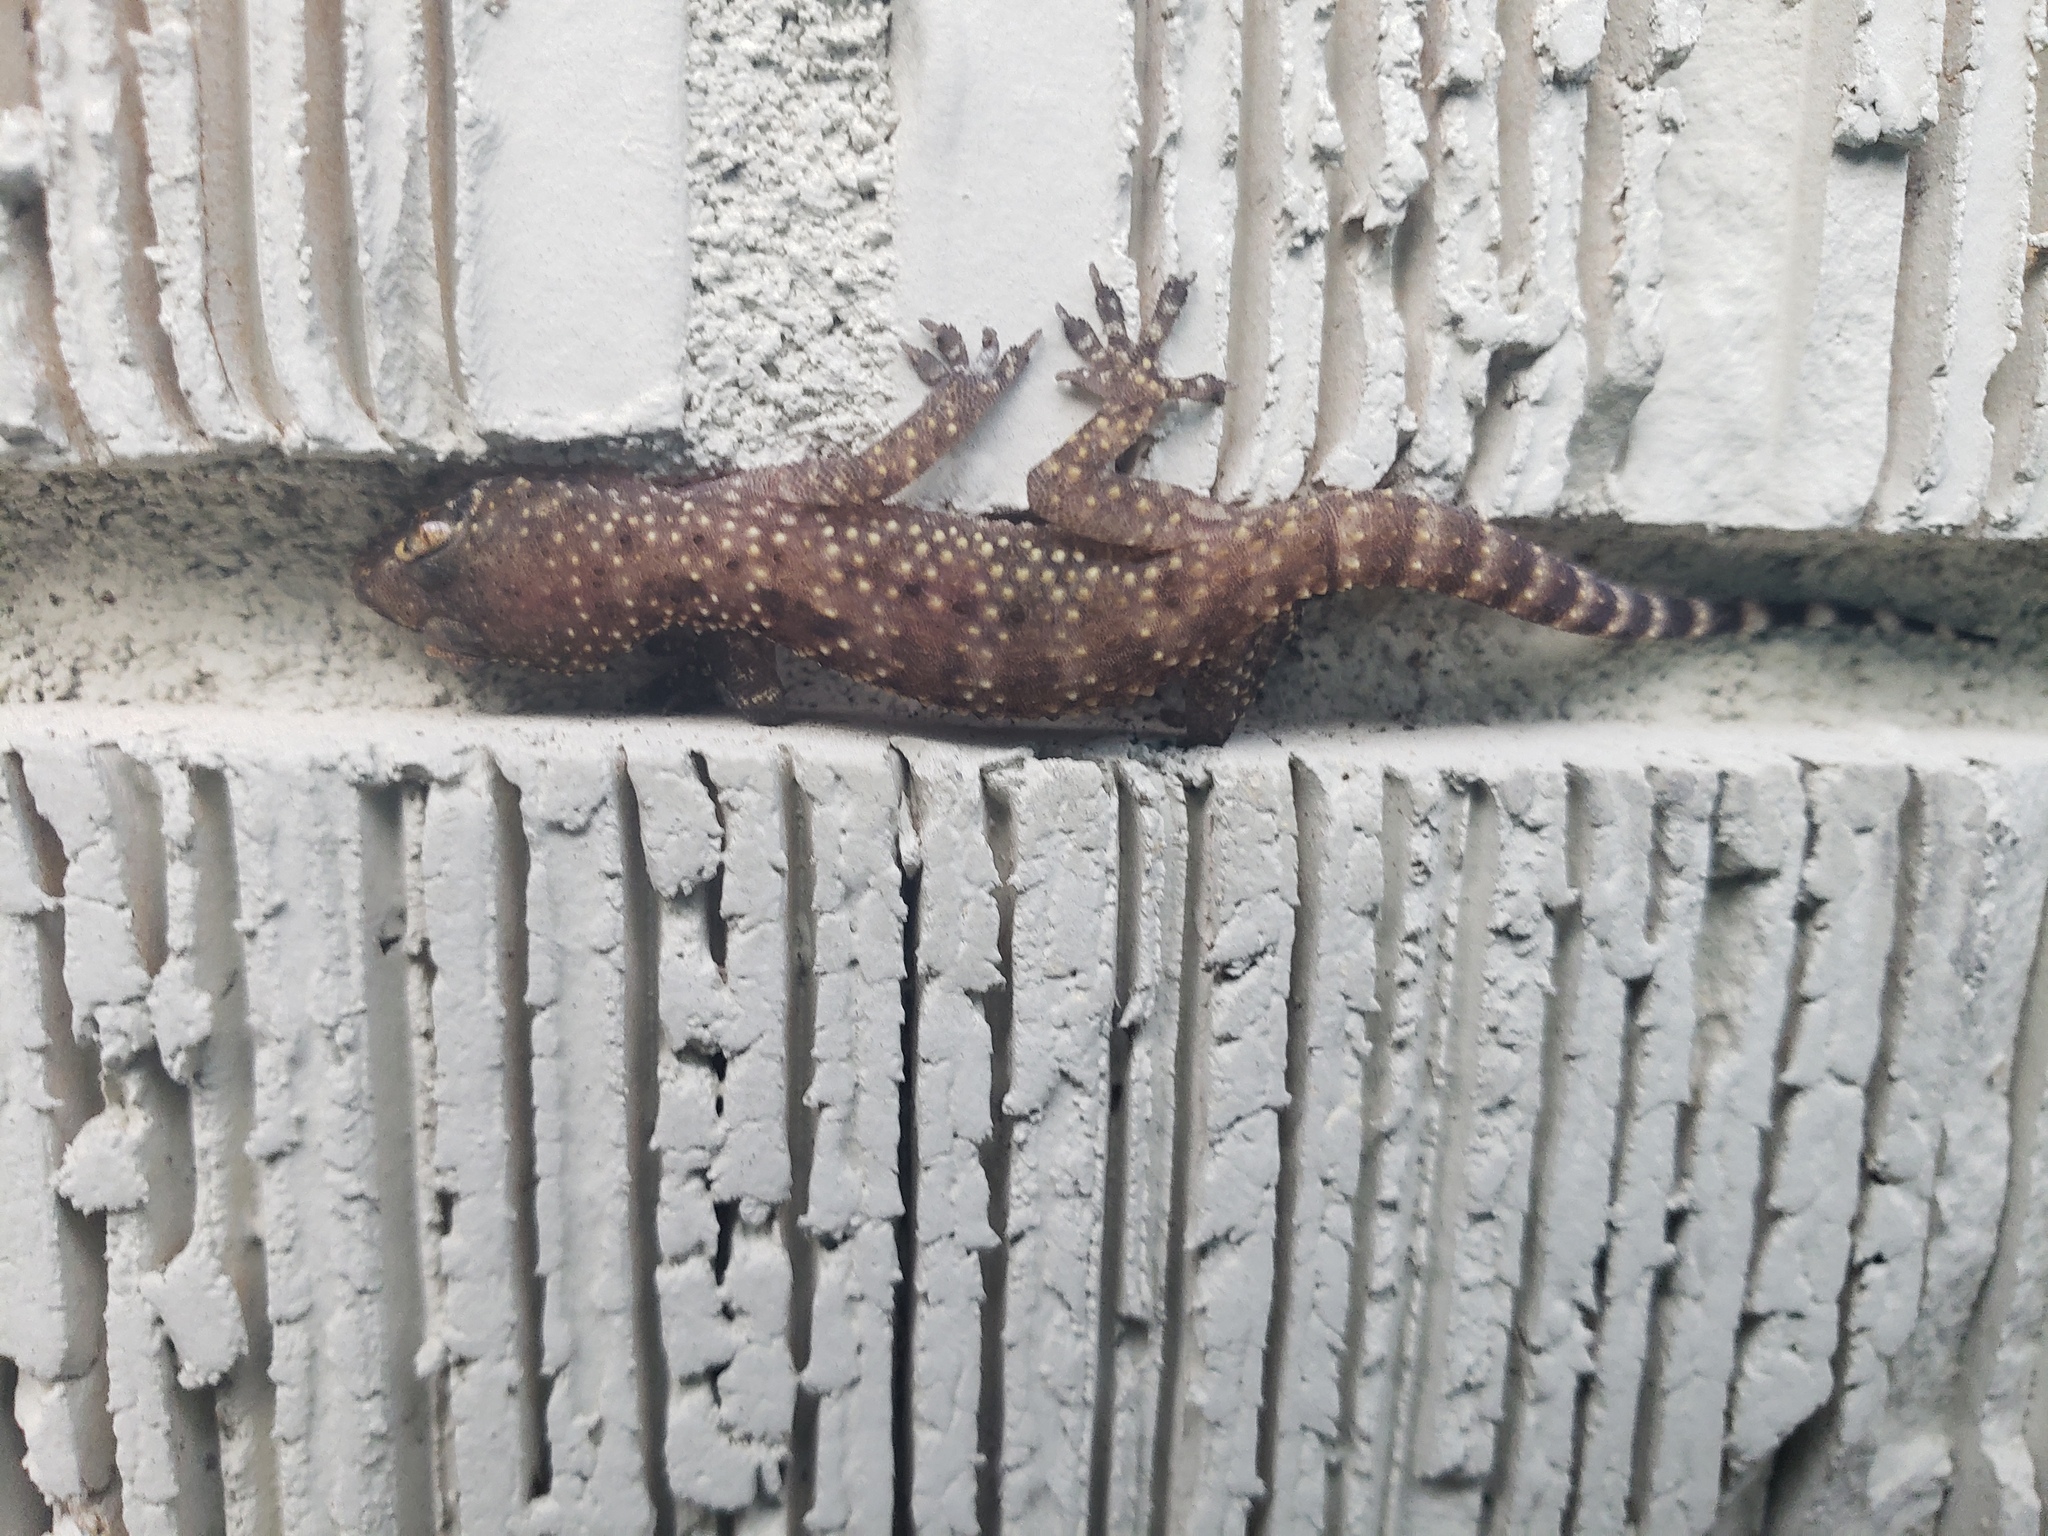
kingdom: Animalia
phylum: Chordata
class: Squamata
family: Gekkonidae
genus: Hemidactylus
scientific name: Hemidactylus turcicus
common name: Turkish gecko
